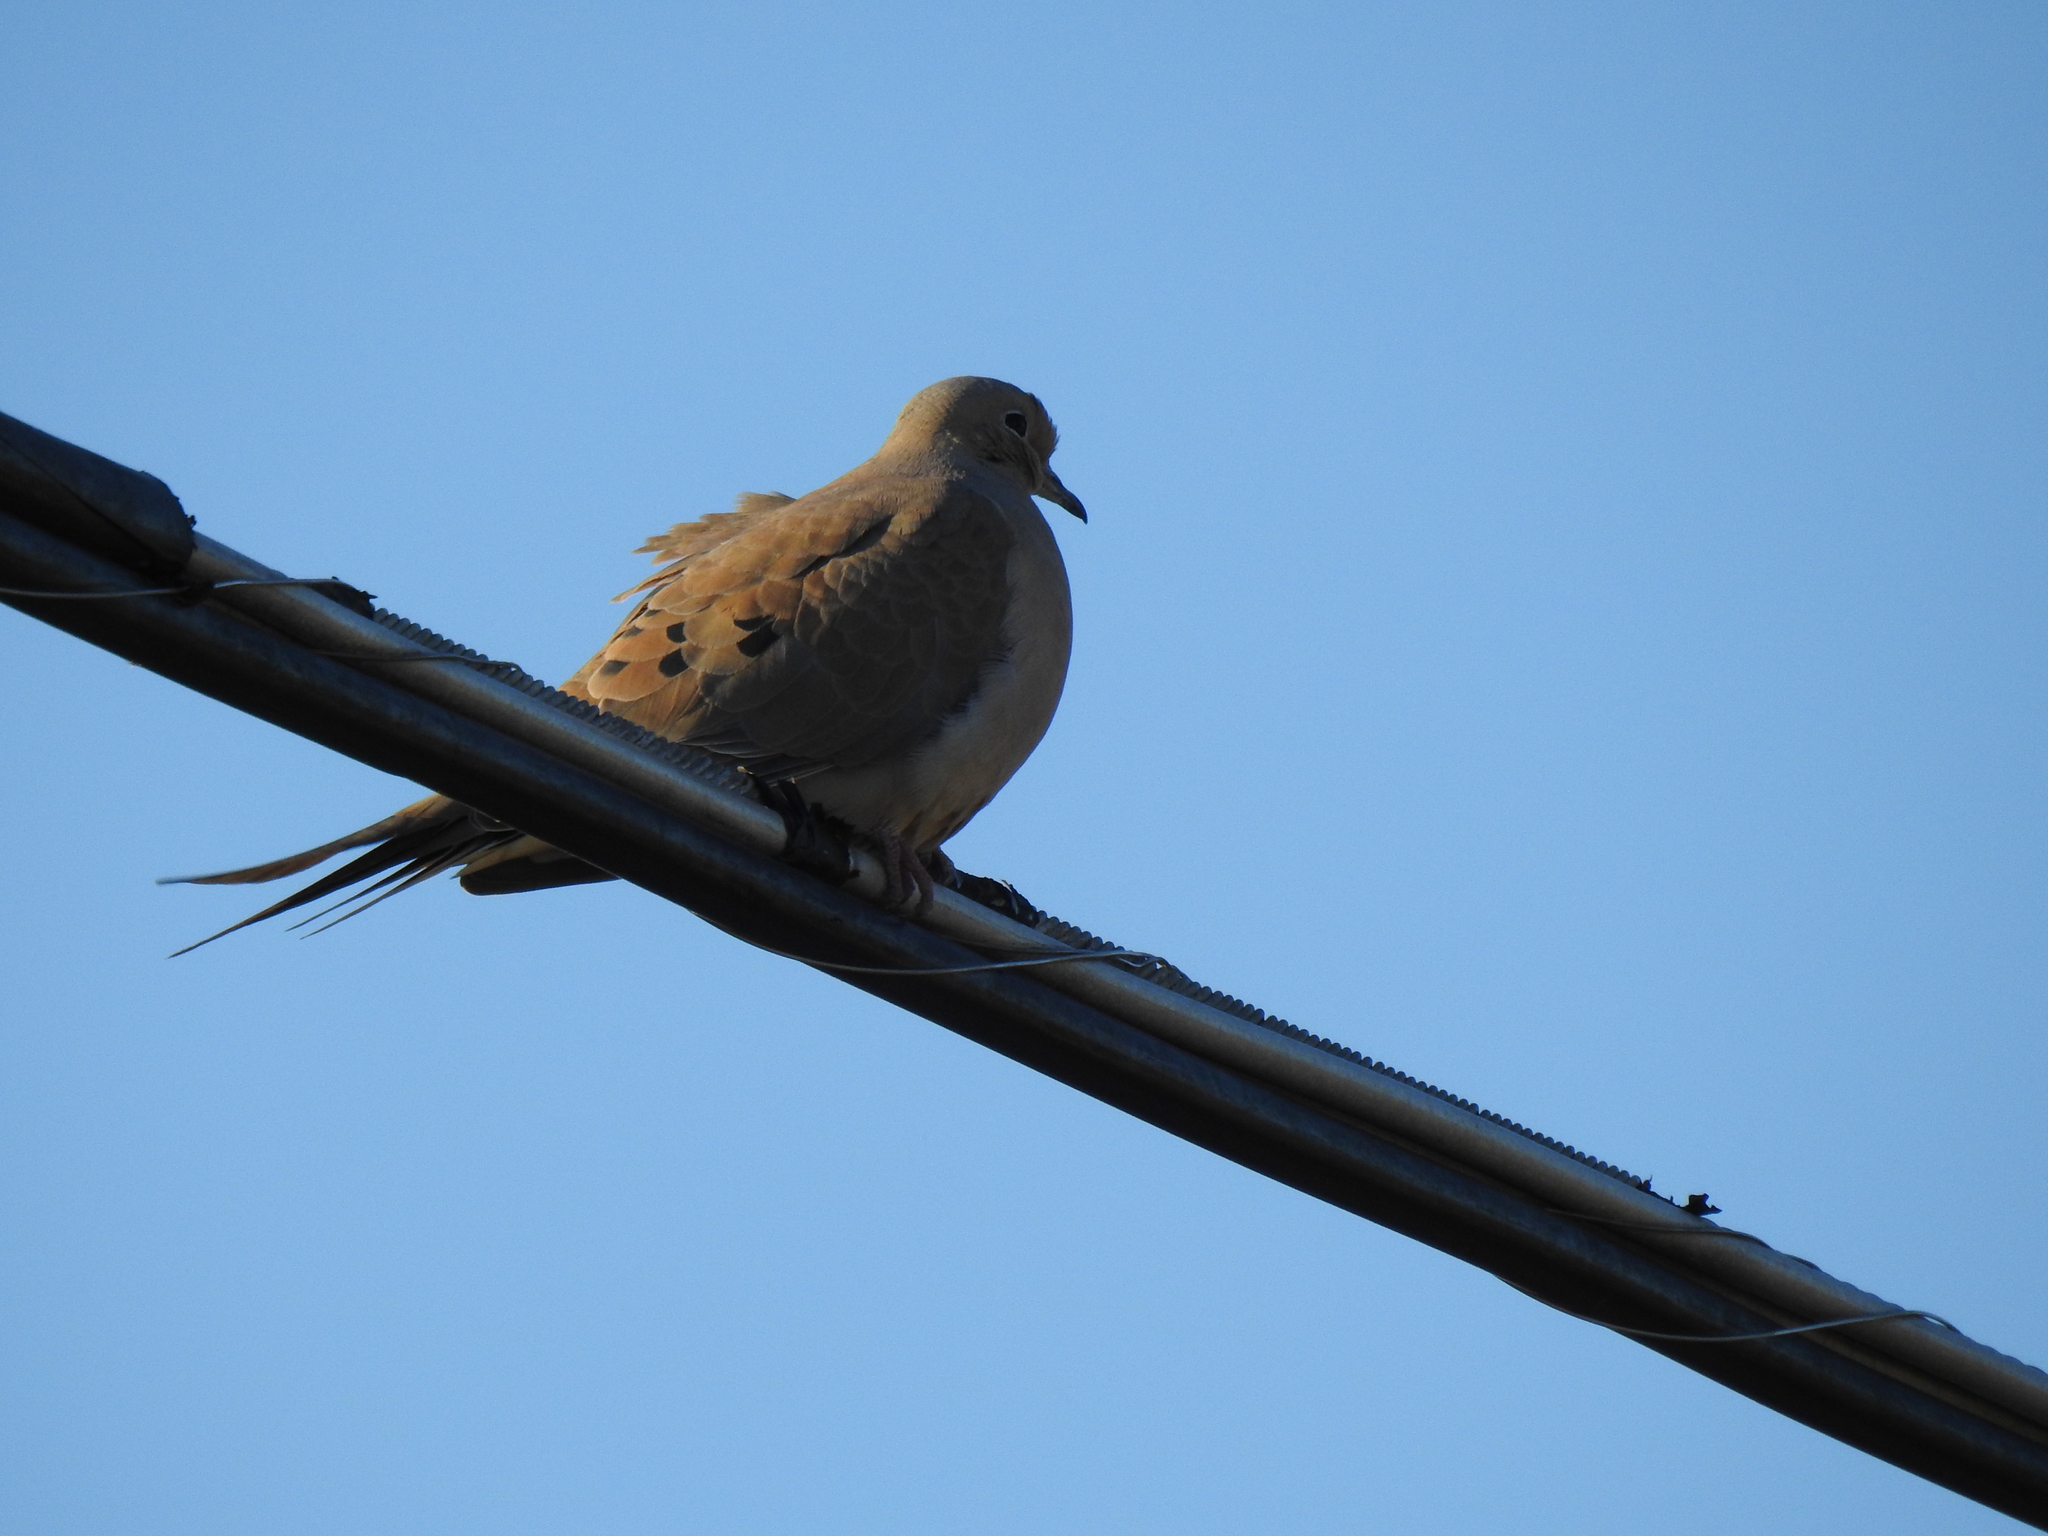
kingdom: Animalia
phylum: Chordata
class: Aves
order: Columbiformes
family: Columbidae
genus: Zenaida
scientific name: Zenaida macroura
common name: Mourning dove
